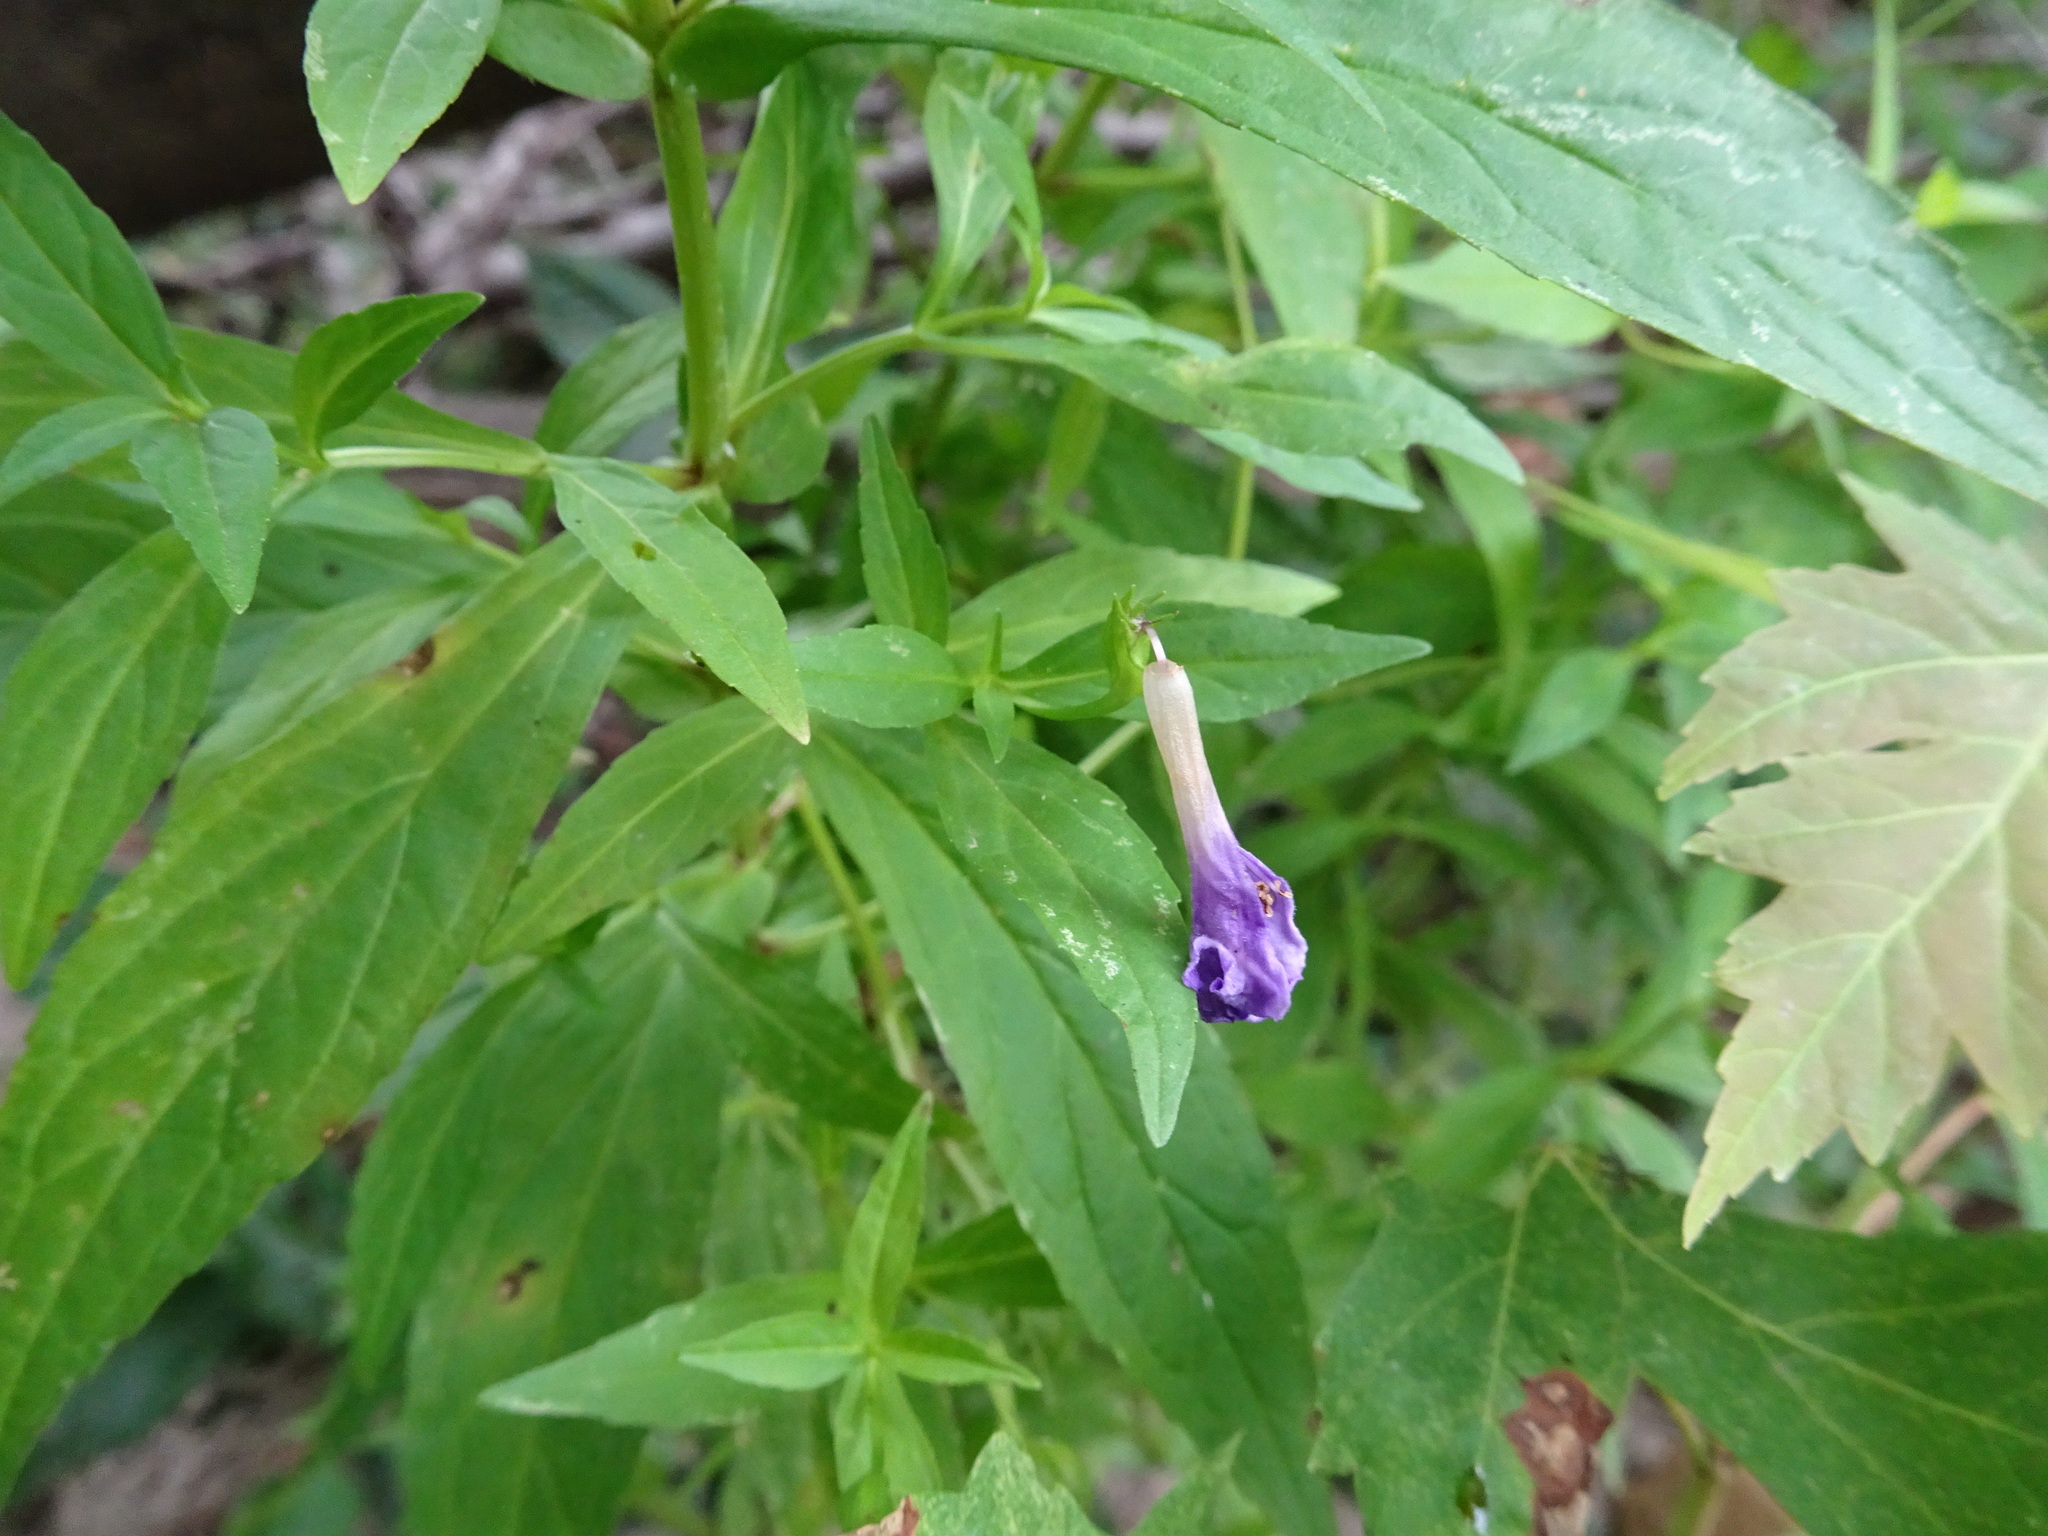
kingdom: Plantae
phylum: Tracheophyta
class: Magnoliopsida
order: Lamiales
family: Phrymaceae
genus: Mimulus
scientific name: Mimulus ringens
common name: Allegheny monkeyflower
